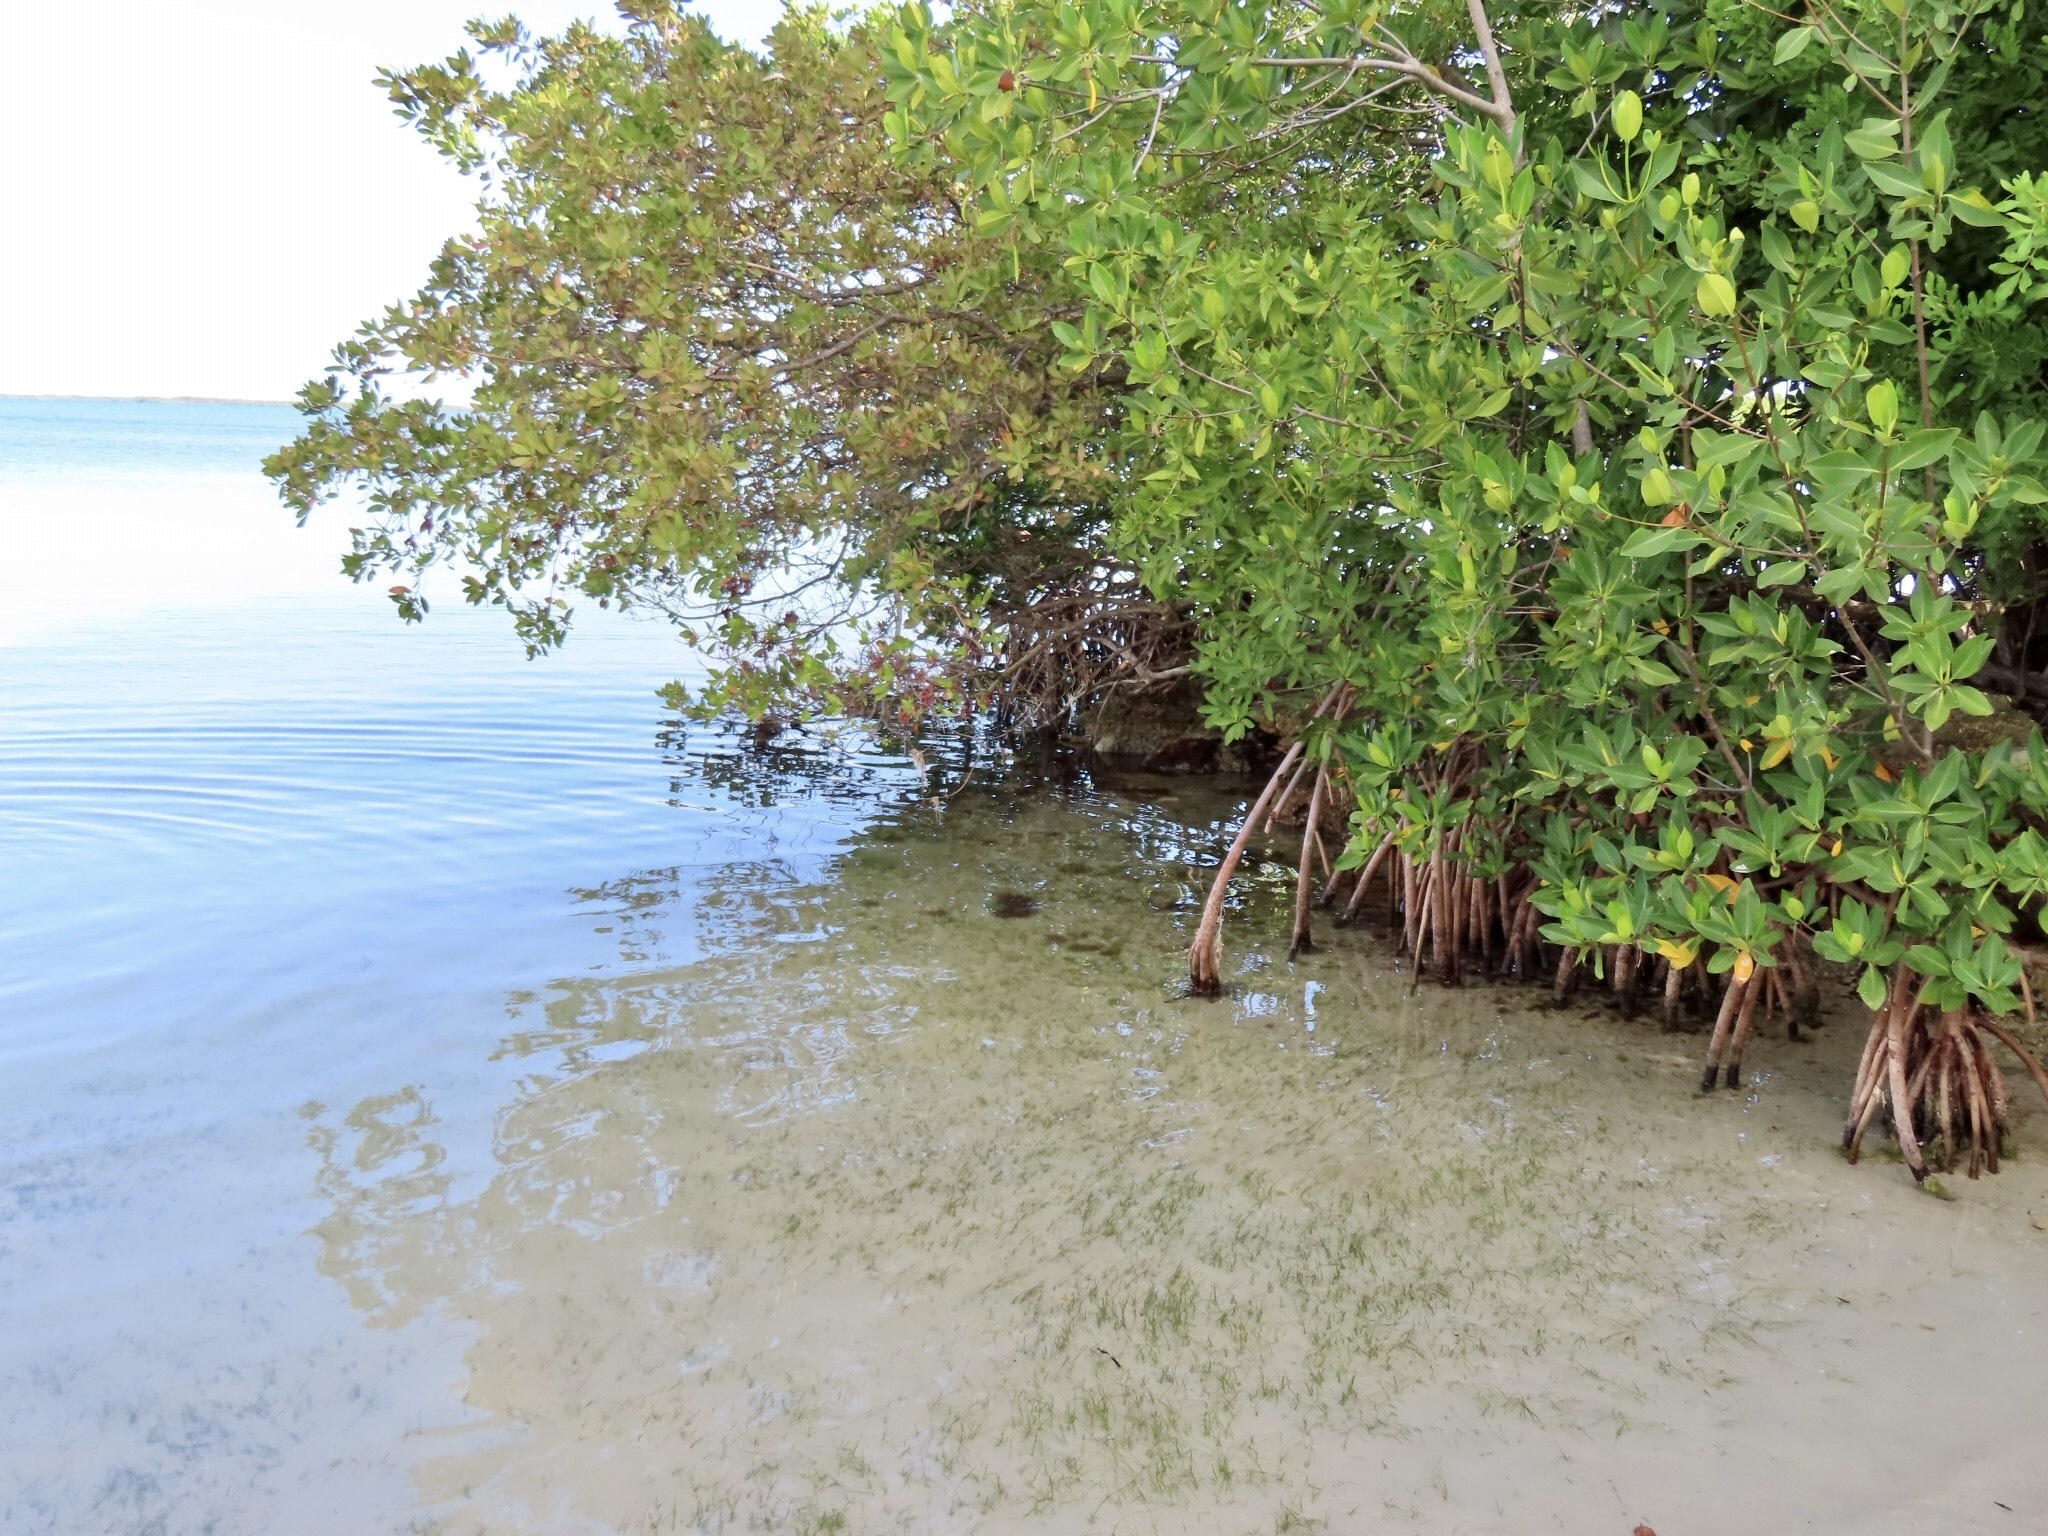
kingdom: Plantae
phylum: Tracheophyta
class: Magnoliopsida
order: Malpighiales
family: Rhizophoraceae
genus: Rhizophora
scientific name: Rhizophora mangle
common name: Red mangrove
